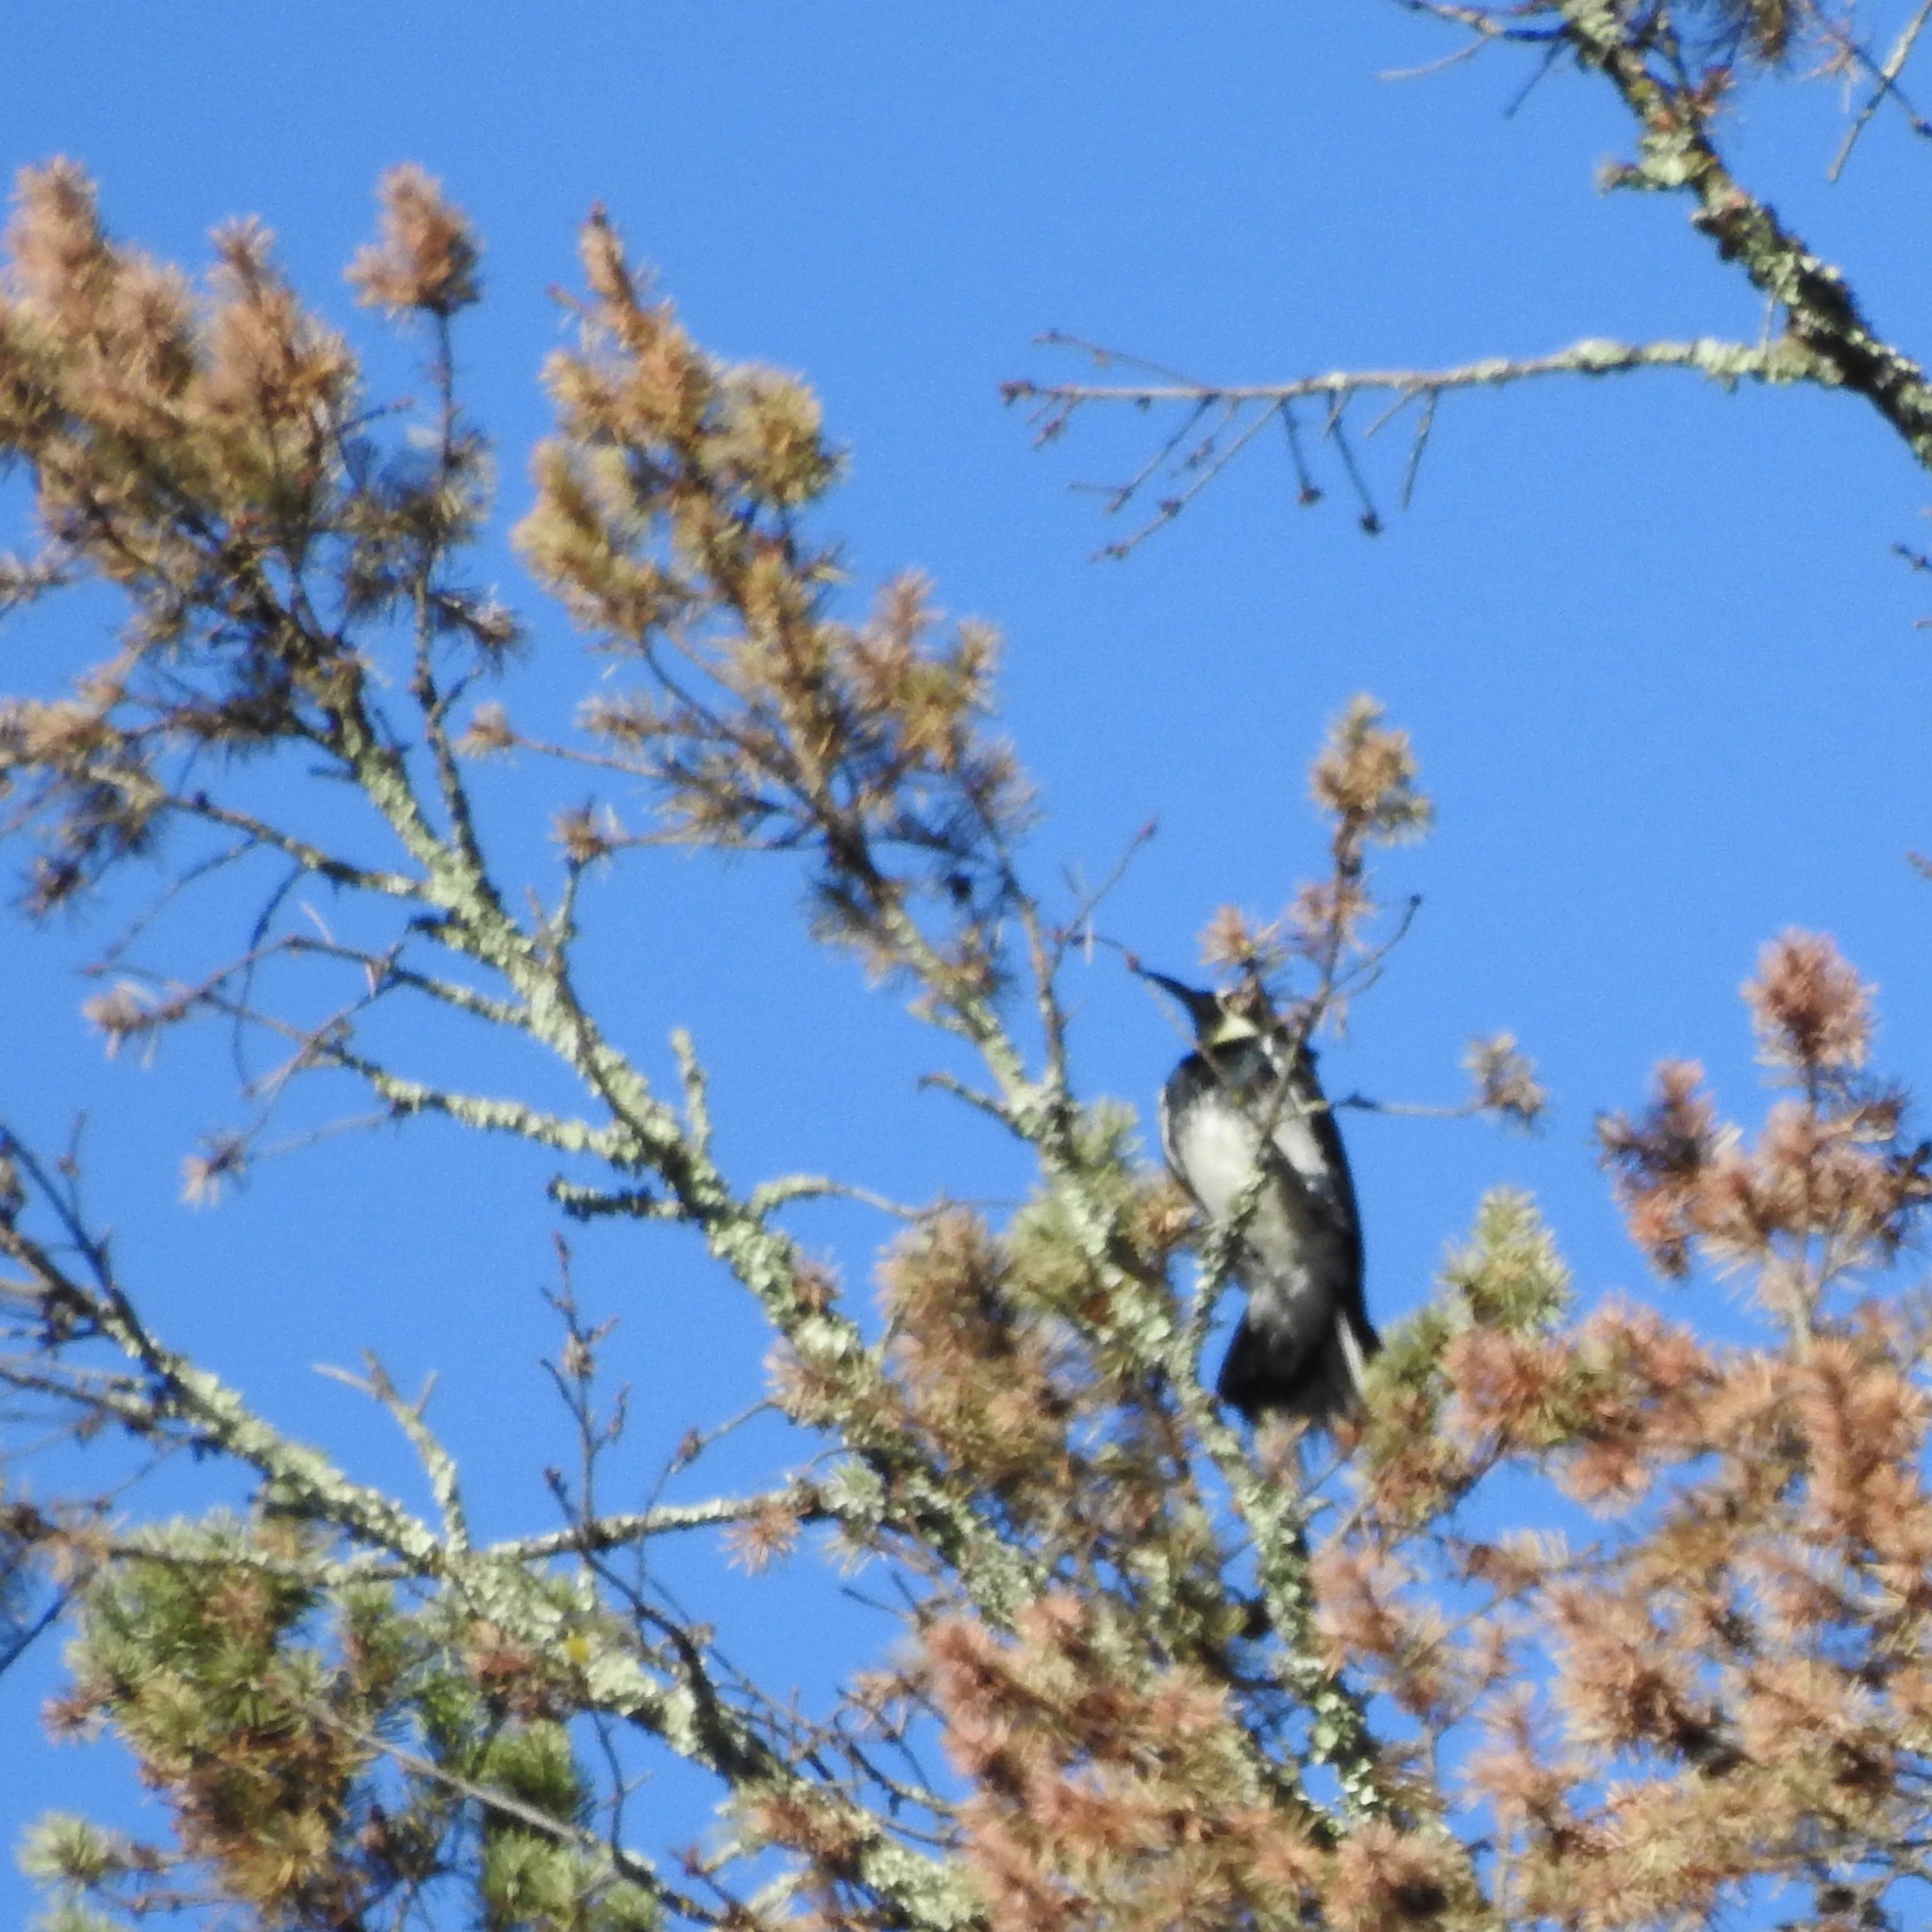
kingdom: Animalia
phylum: Chordata
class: Aves
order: Piciformes
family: Picidae
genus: Melanerpes
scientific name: Melanerpes formicivorus
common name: Acorn woodpecker
